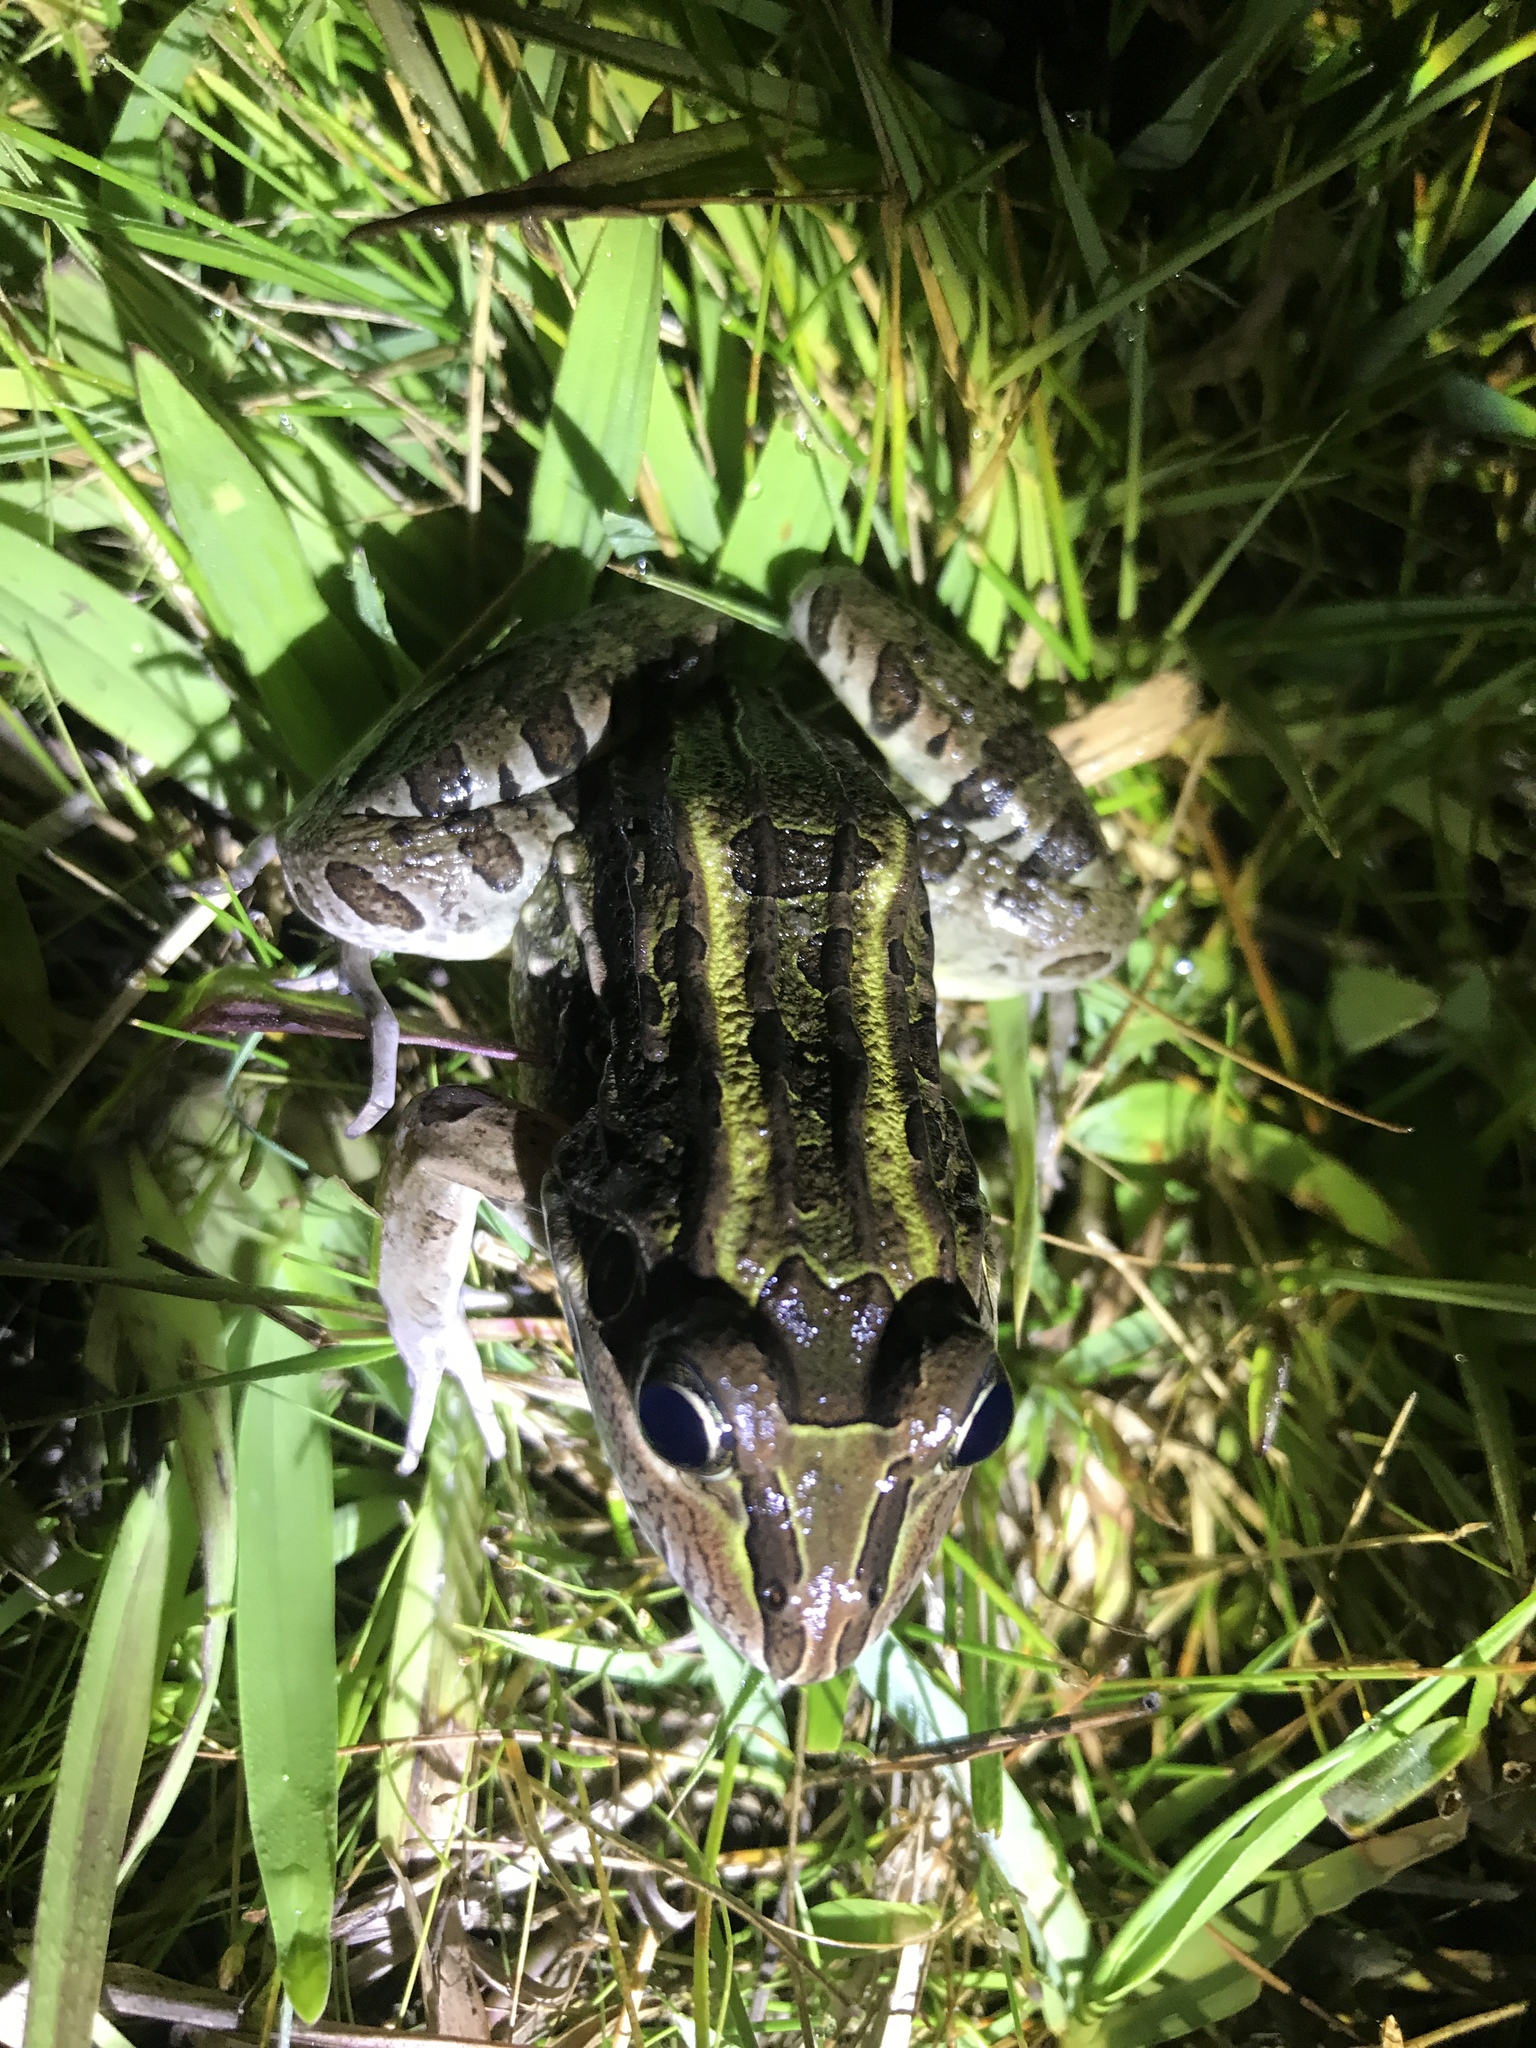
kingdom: Animalia
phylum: Chordata
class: Amphibia
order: Anura
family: Leptodactylidae
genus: Leptodactylus
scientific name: Leptodactylus luctator
